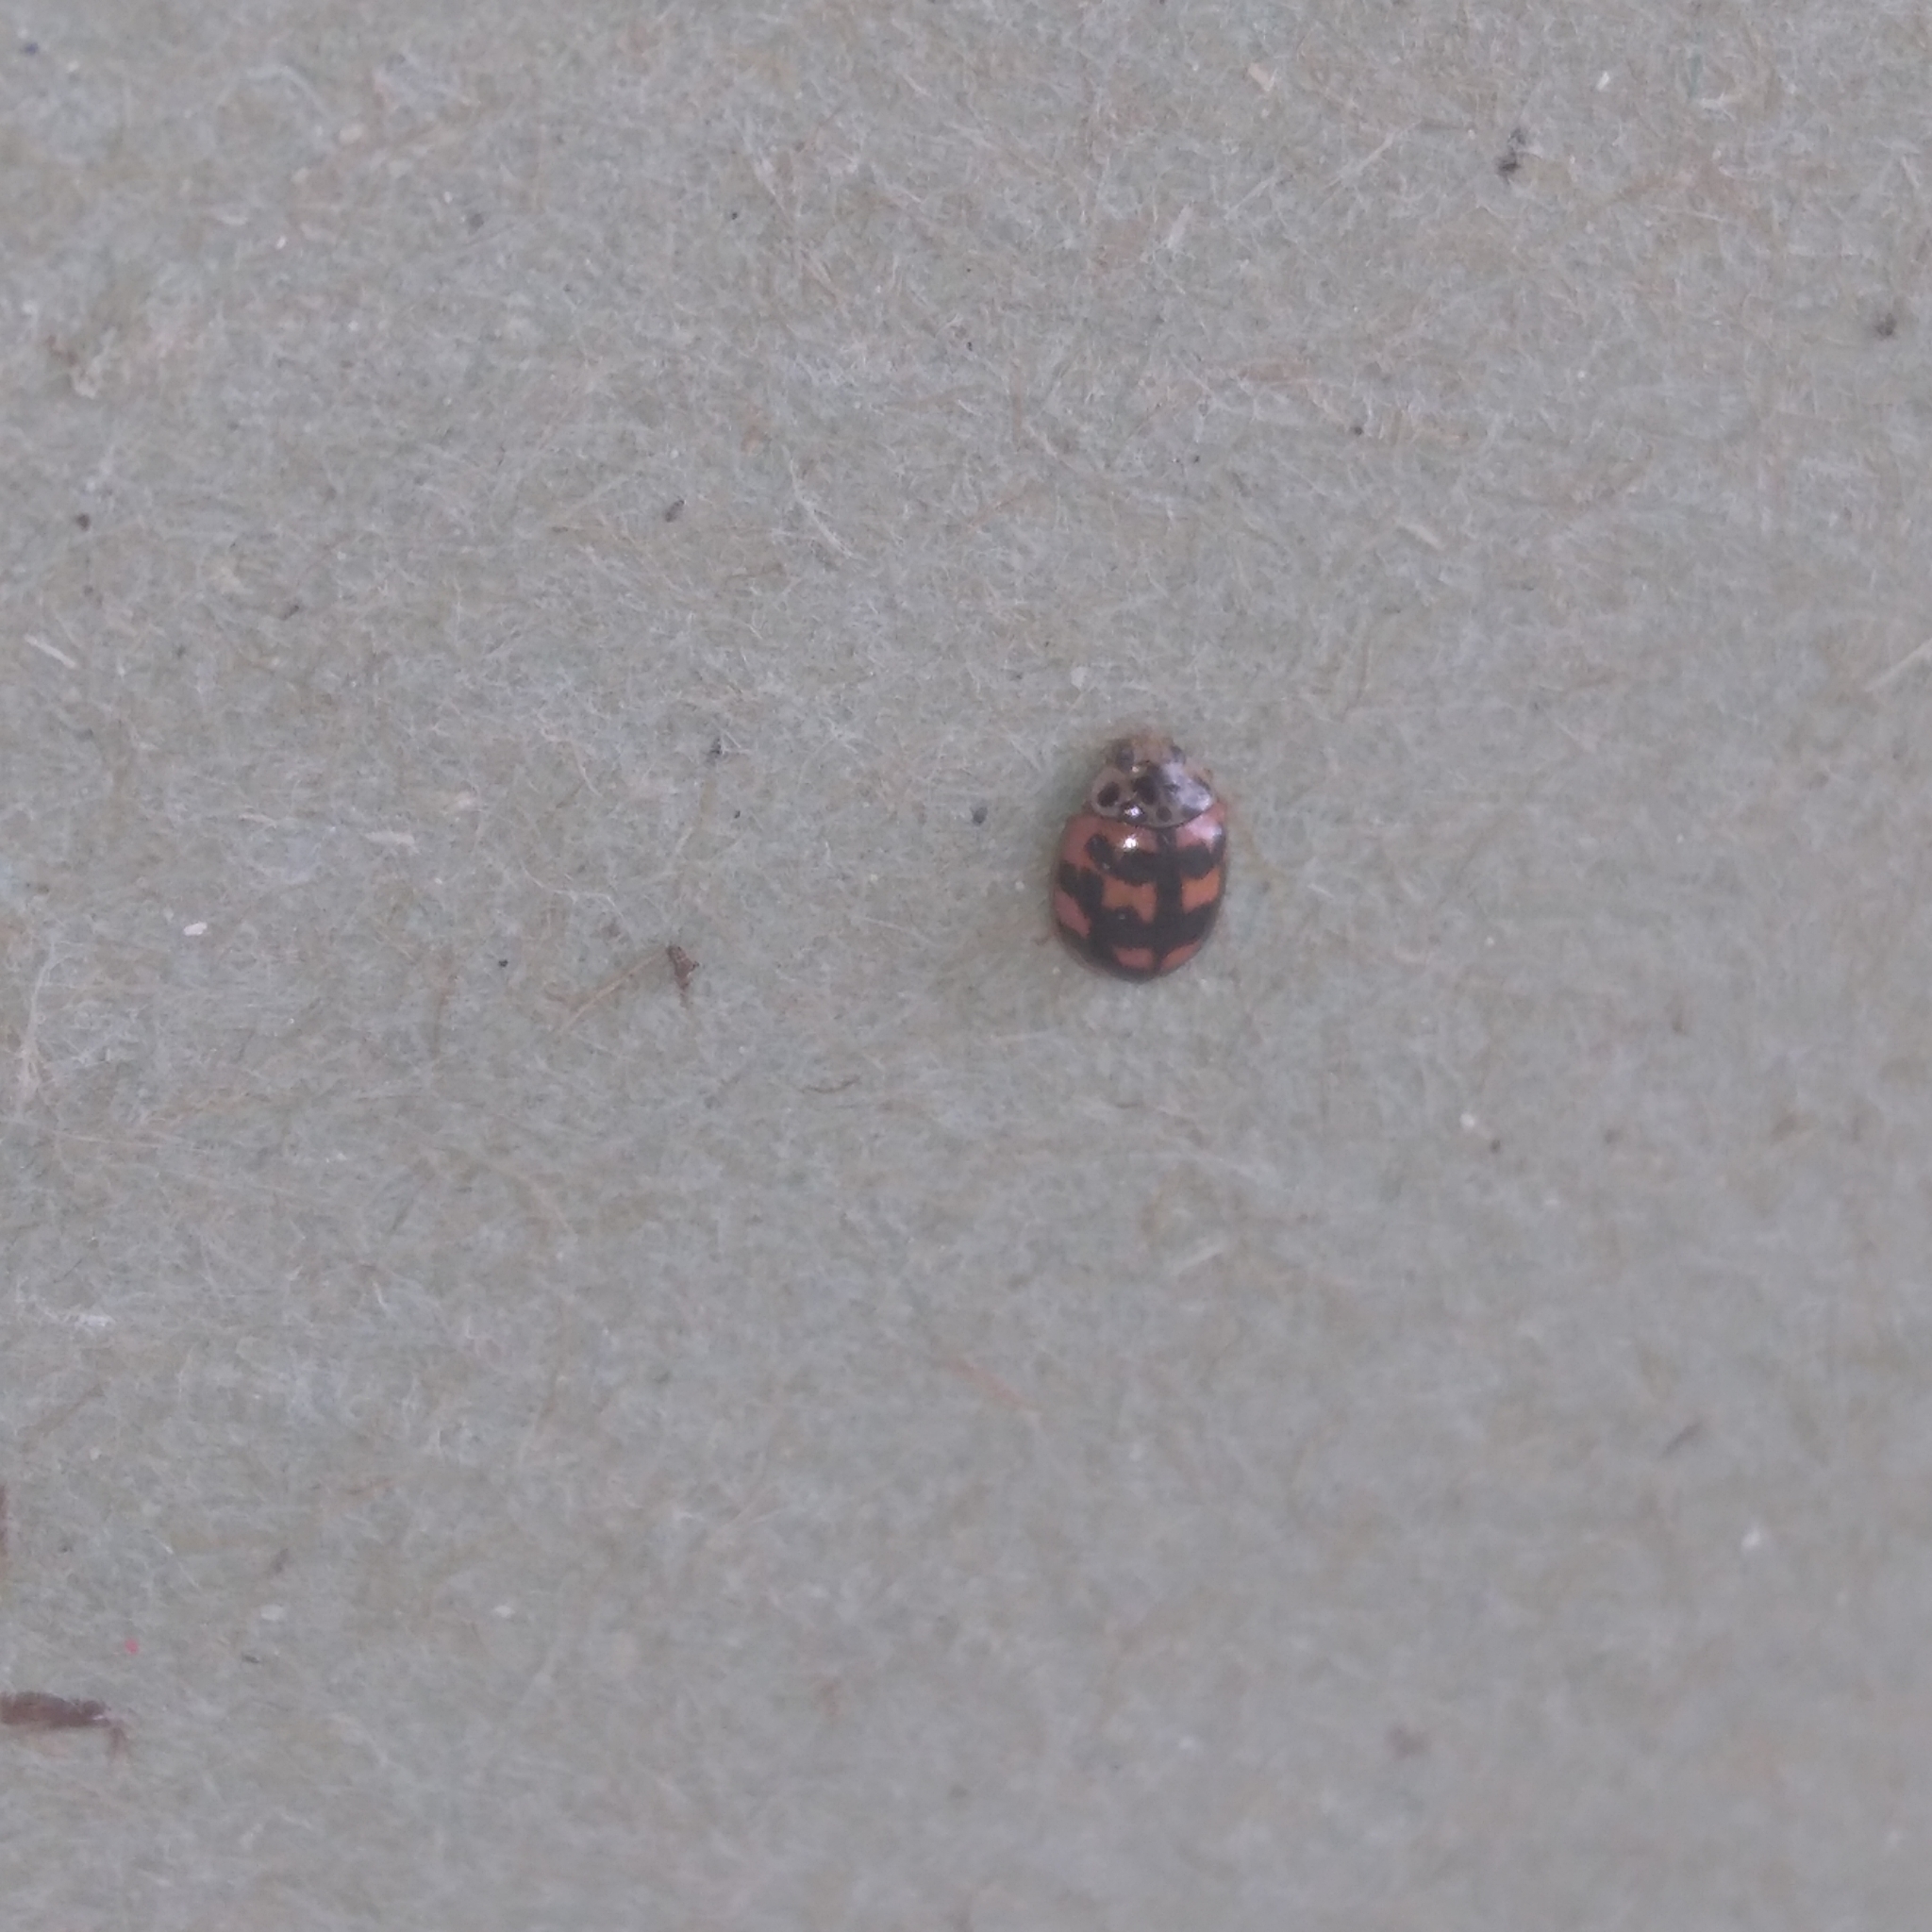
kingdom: Animalia
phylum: Arthropoda
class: Insecta
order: Coleoptera
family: Coccinellidae
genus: Oenopia
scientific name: Oenopia conglobata
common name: Ladybird beetle
